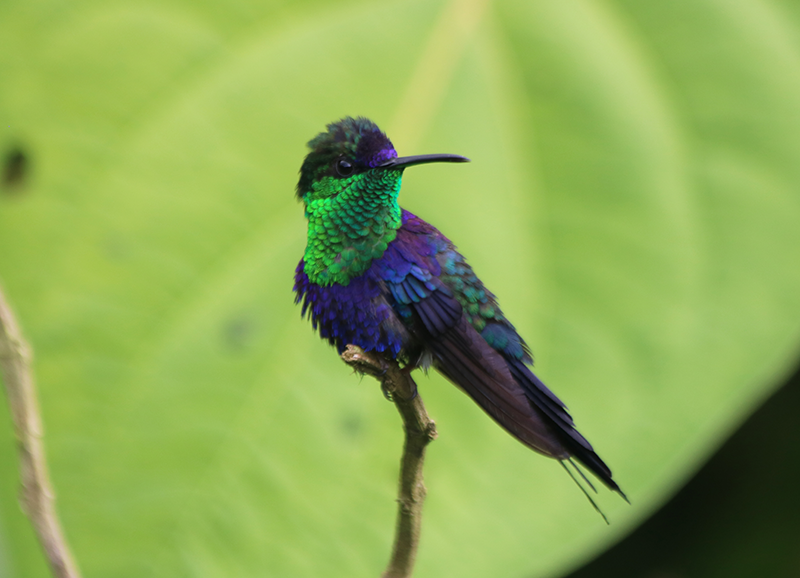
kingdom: Animalia
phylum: Chordata
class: Aves
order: Apodiformes
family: Trochilidae
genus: Thalurania
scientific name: Thalurania colombica
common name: Crowned woodnymph
